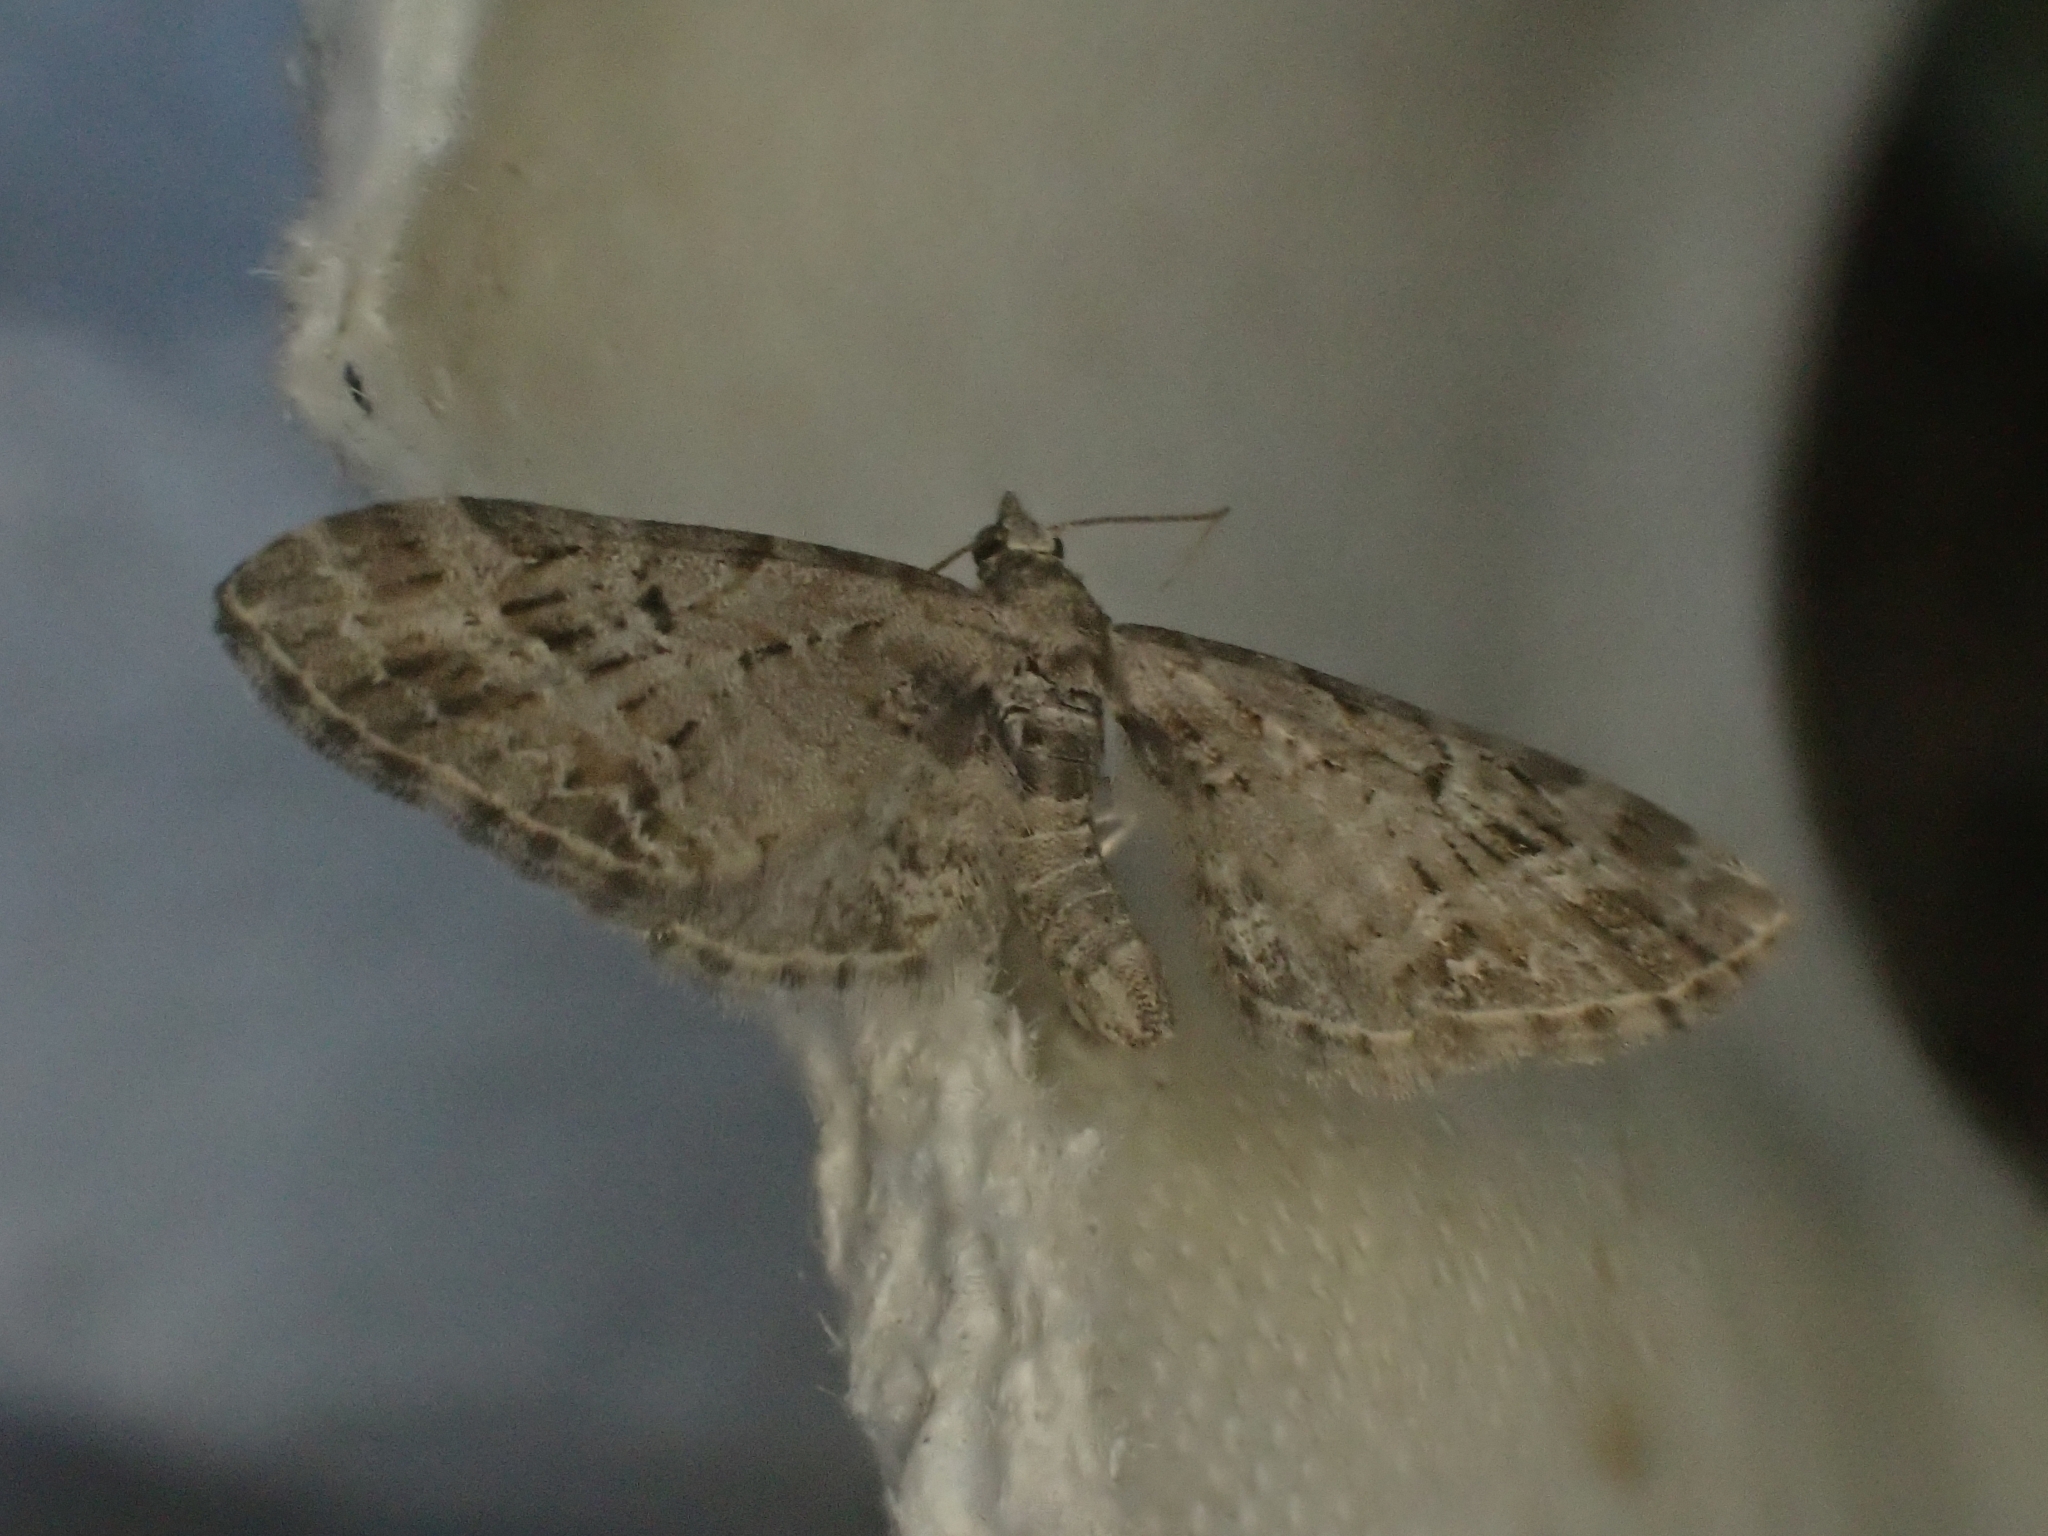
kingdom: Animalia
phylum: Arthropoda
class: Insecta
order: Lepidoptera
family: Geometridae
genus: Eupithecia
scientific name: Eupithecia exiguata
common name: Mottled pug
